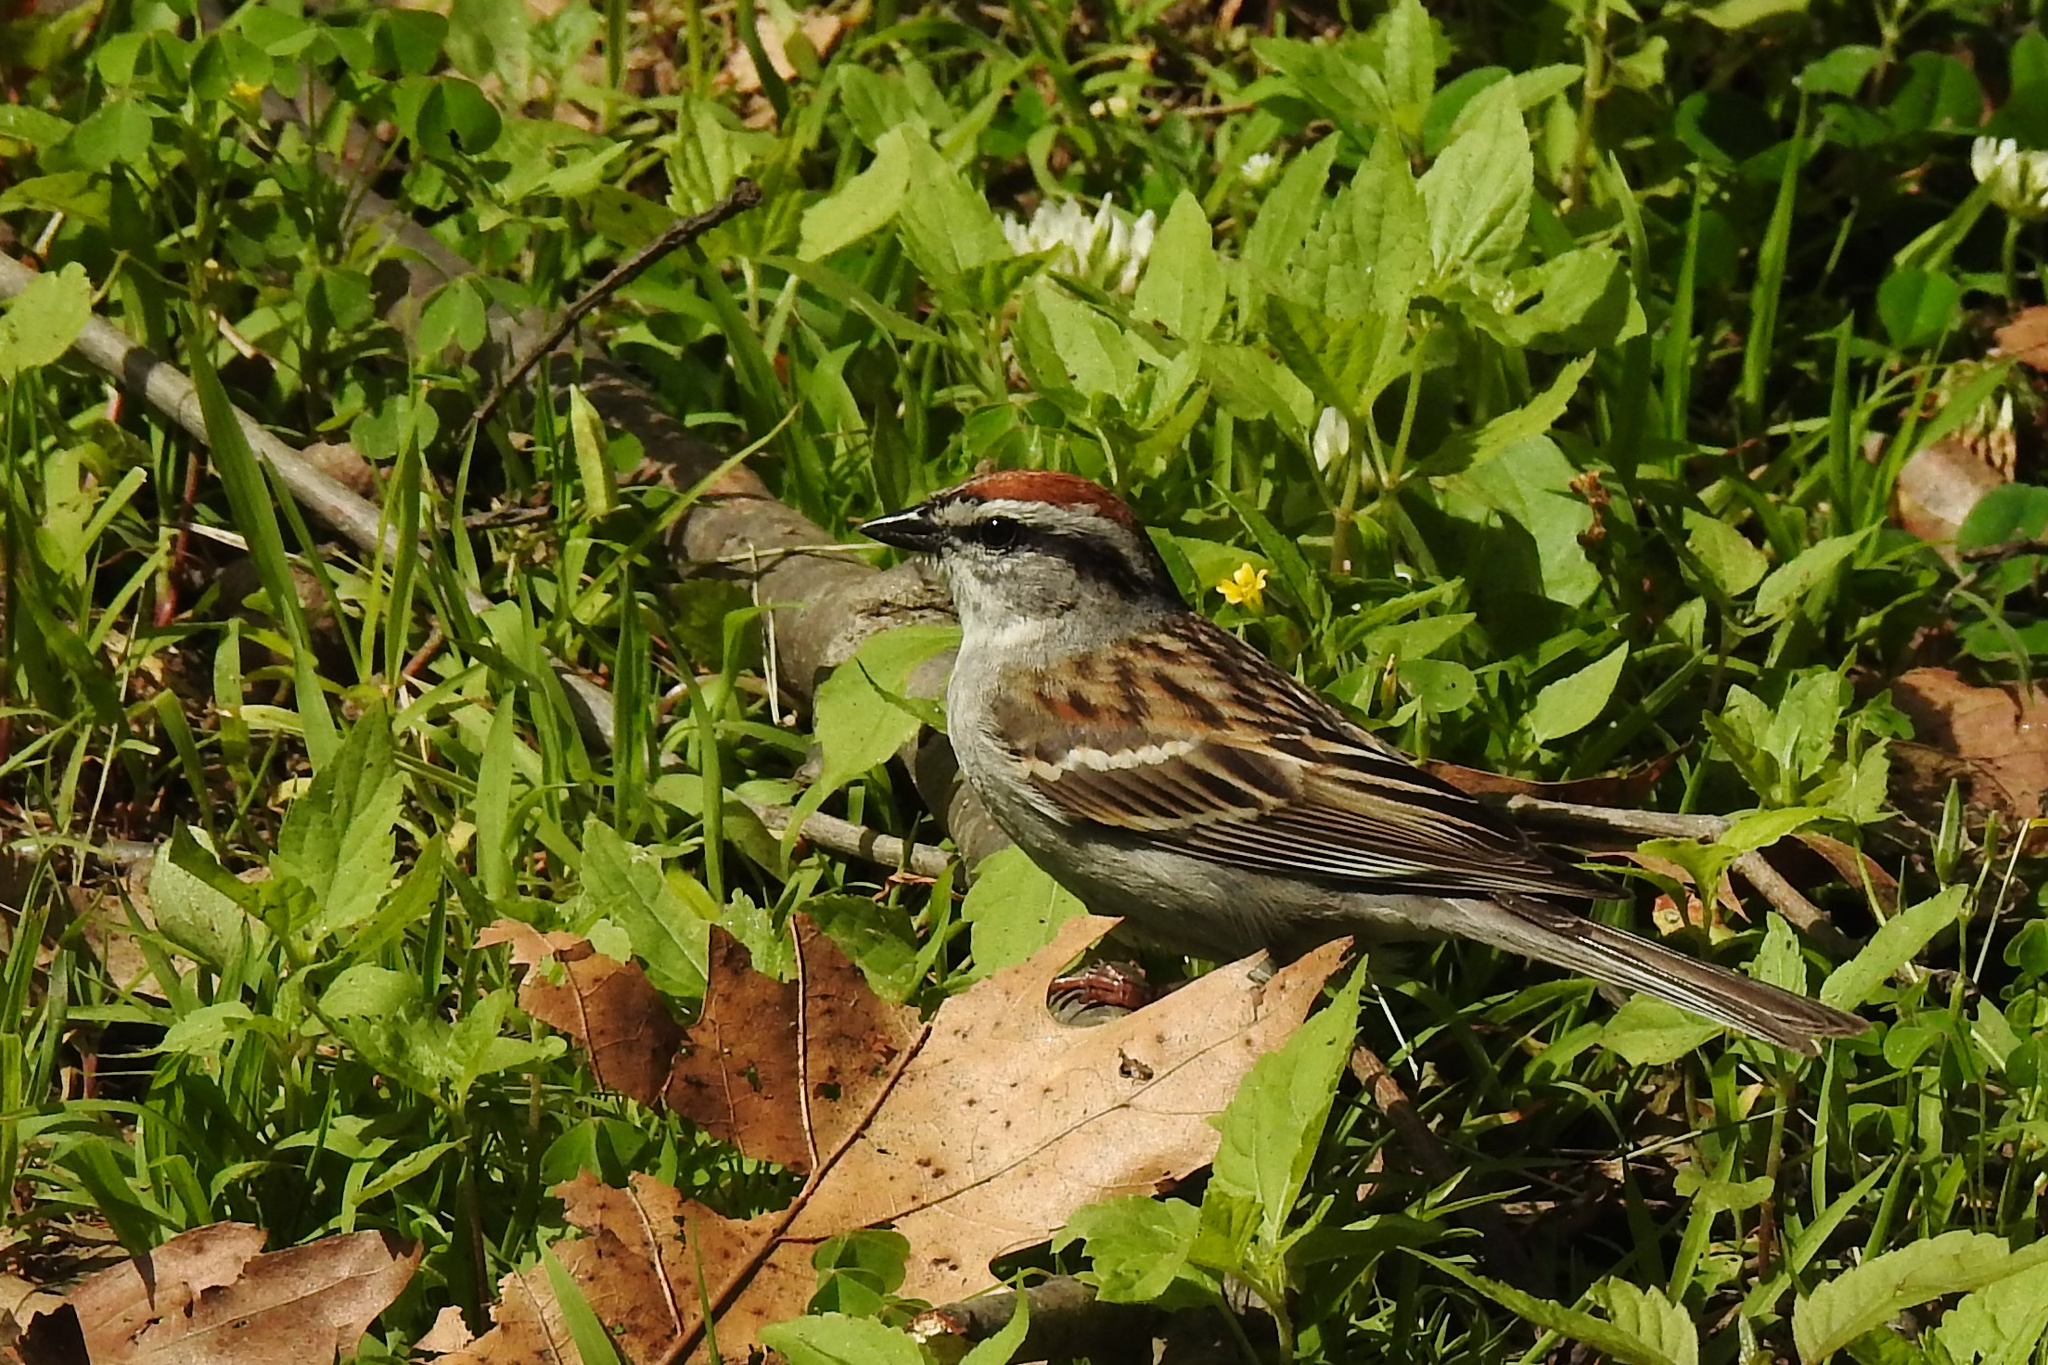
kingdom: Animalia
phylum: Chordata
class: Aves
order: Passeriformes
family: Passerellidae
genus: Spizella
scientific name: Spizella passerina
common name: Chipping sparrow
